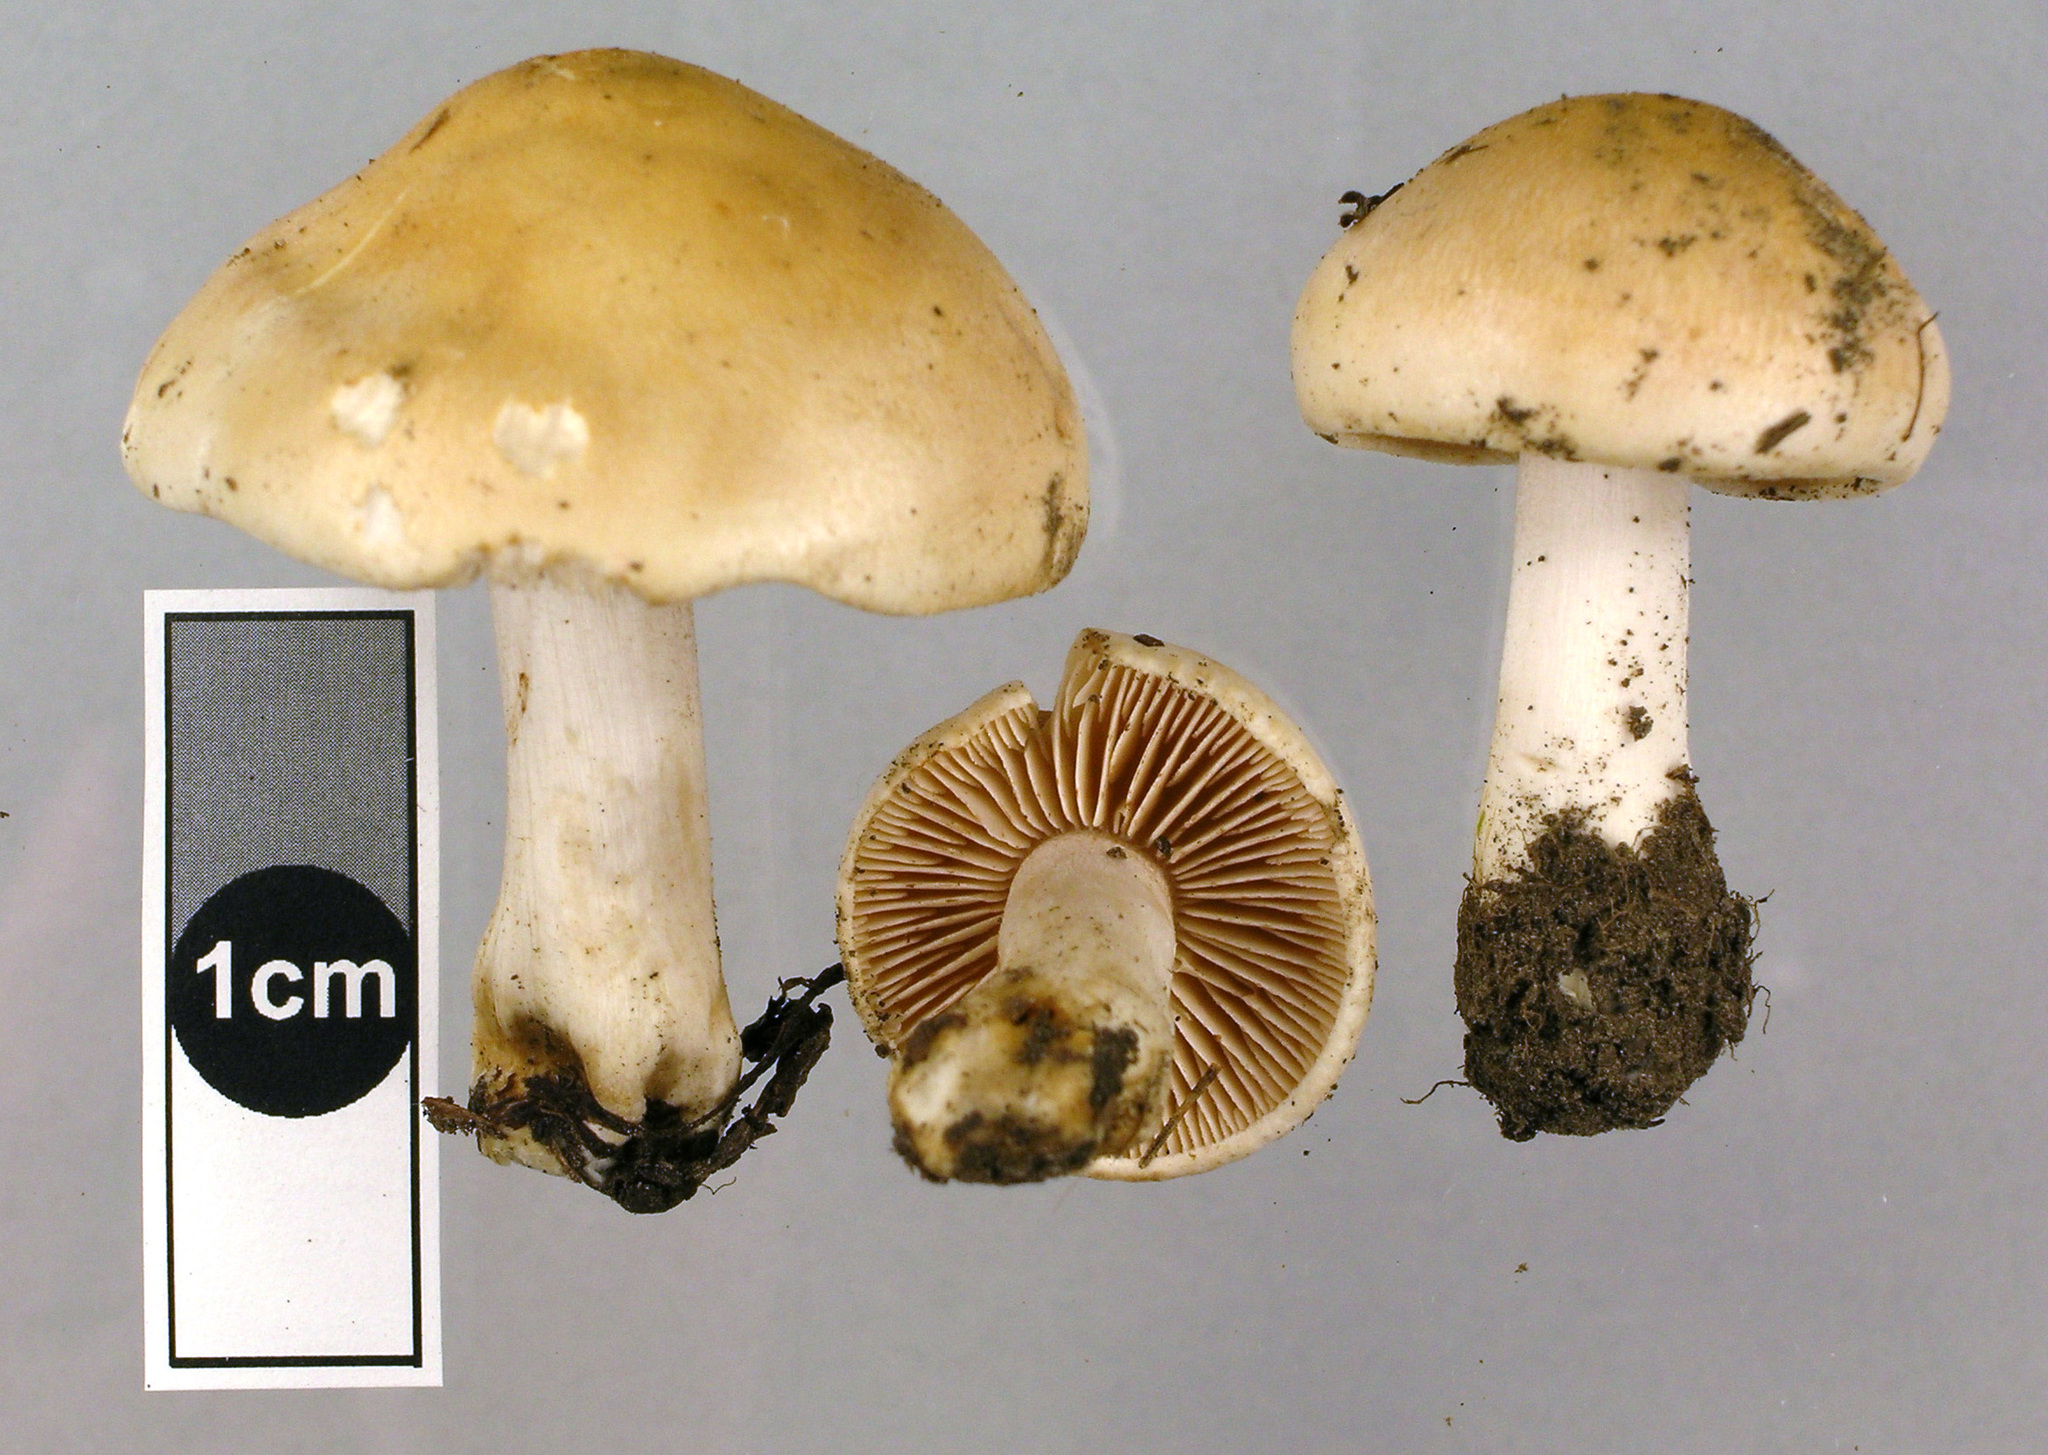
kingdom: Fungi
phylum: Basidiomycota
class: Agaricomycetes
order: Agaricales
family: Hymenogastraceae
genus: Hebeloma
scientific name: Hebeloma hiemale
